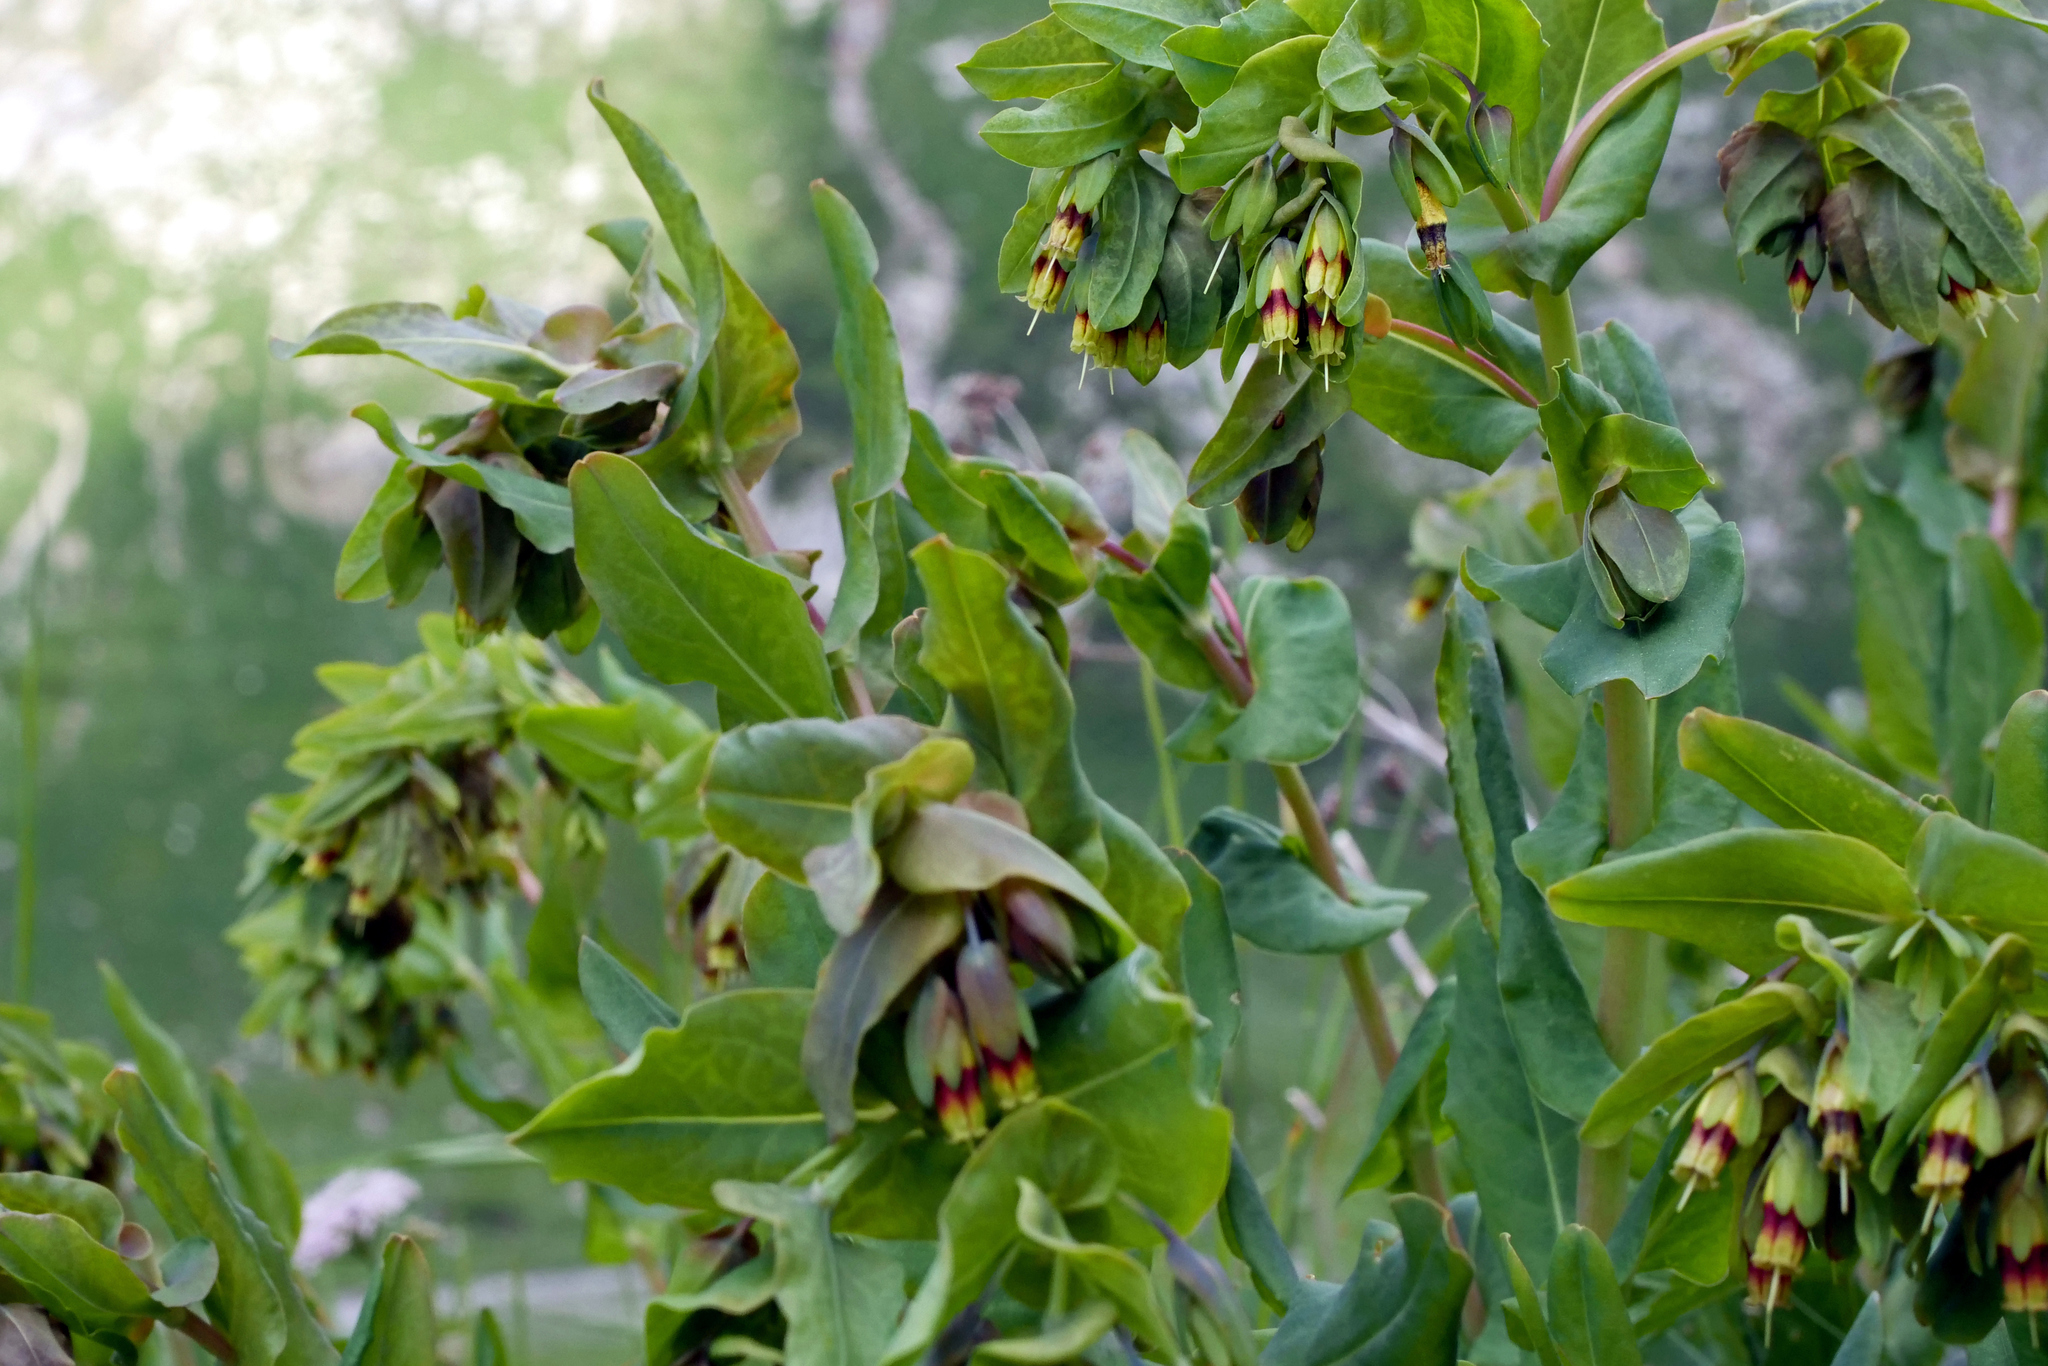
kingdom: Plantae
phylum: Tracheophyta
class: Magnoliopsida
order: Boraginales
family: Boraginaceae
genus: Cerinthe
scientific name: Cerinthe glabra
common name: Smooth honeywort
